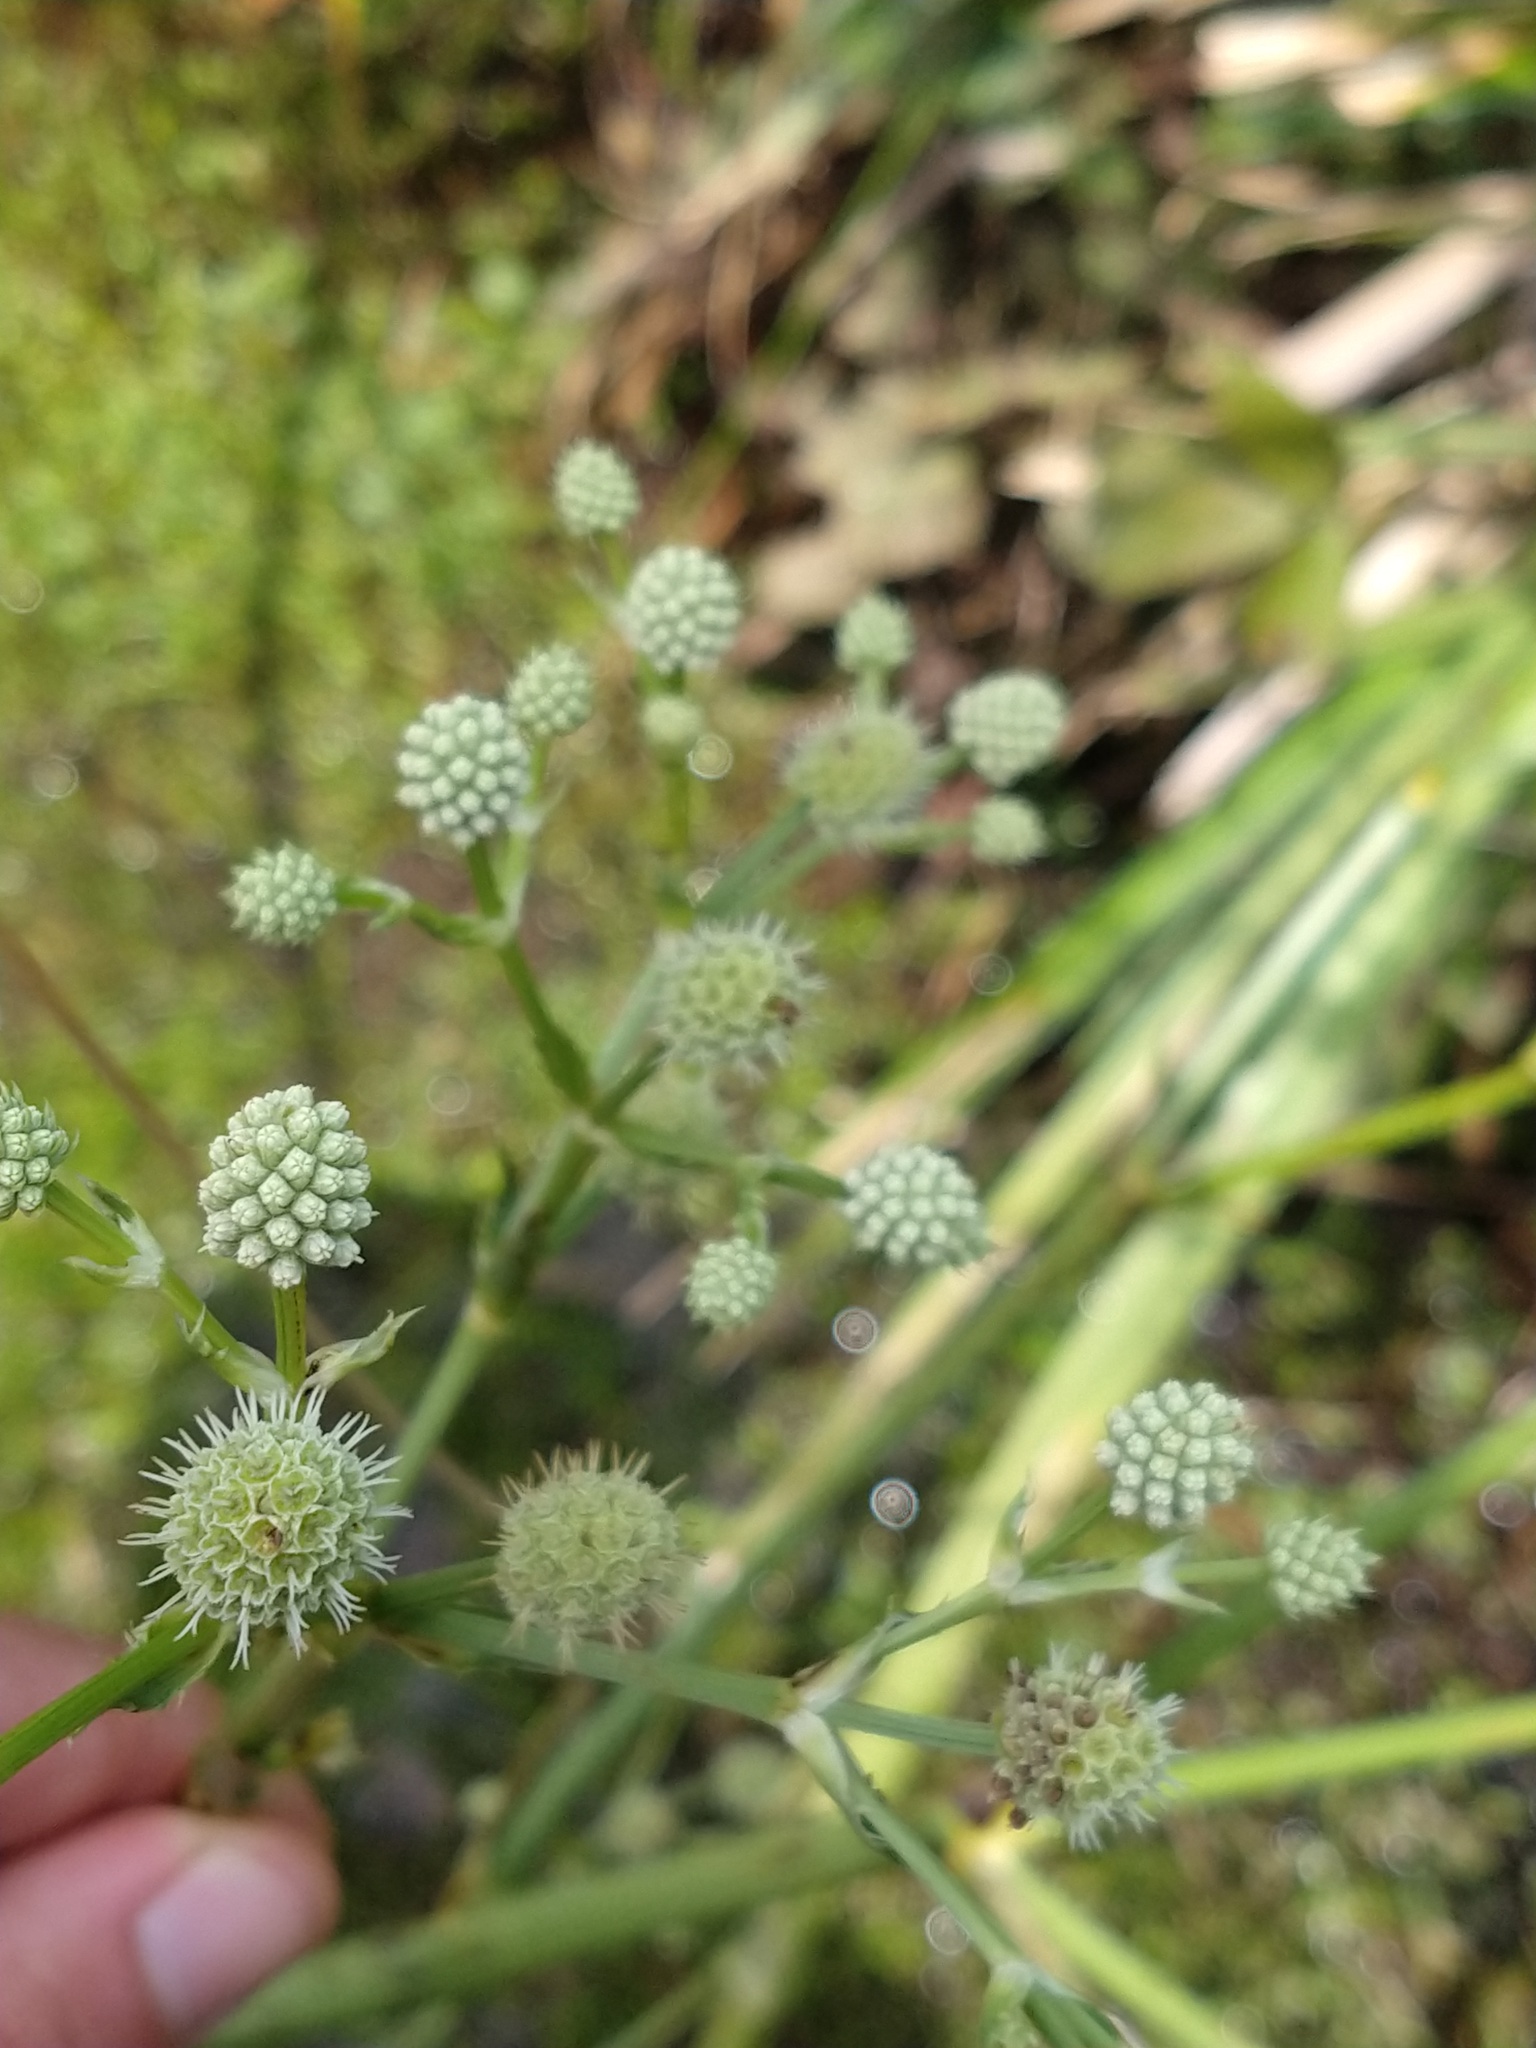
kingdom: Plantae
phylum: Tracheophyta
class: Magnoliopsida
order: Apiales
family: Apiaceae
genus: Eryngium
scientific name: Eryngium humboldtii
